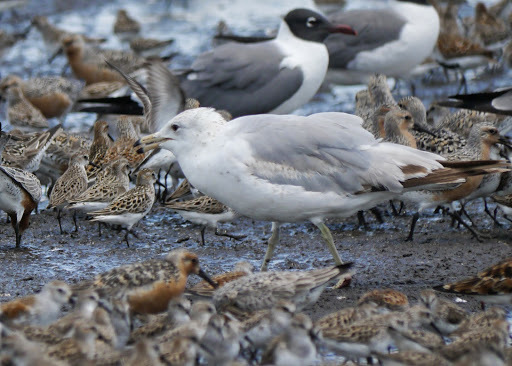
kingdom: Animalia
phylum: Chordata
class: Aves
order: Charadriiformes
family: Laridae
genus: Larus
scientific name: Larus delawarensis
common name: Ring-billed gull
